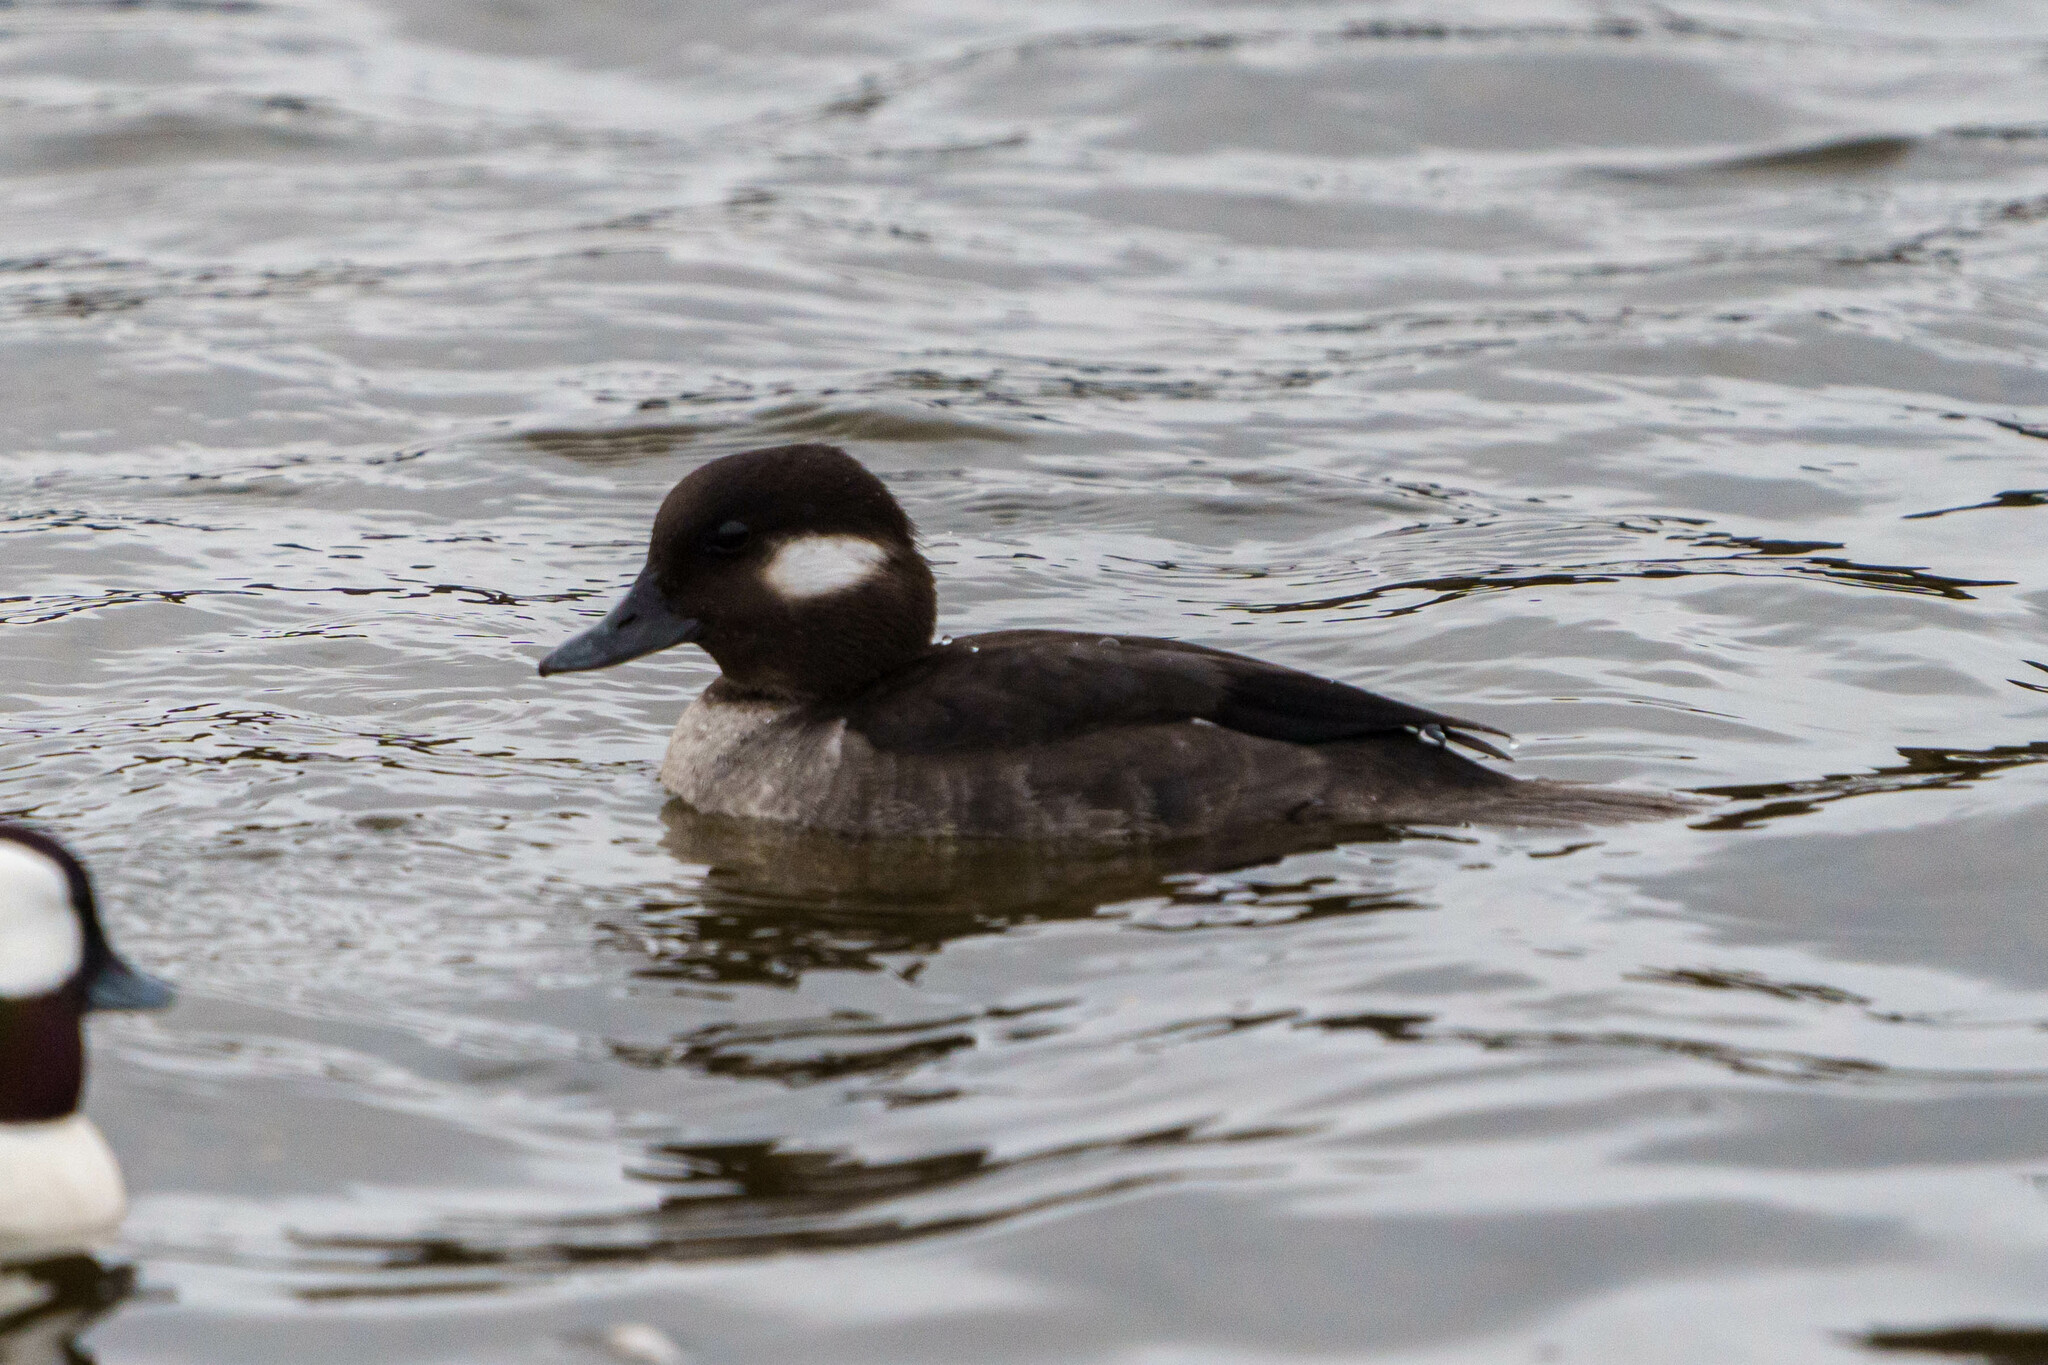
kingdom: Animalia
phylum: Chordata
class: Aves
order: Anseriformes
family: Anatidae
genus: Bucephala
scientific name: Bucephala albeola
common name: Bufflehead
